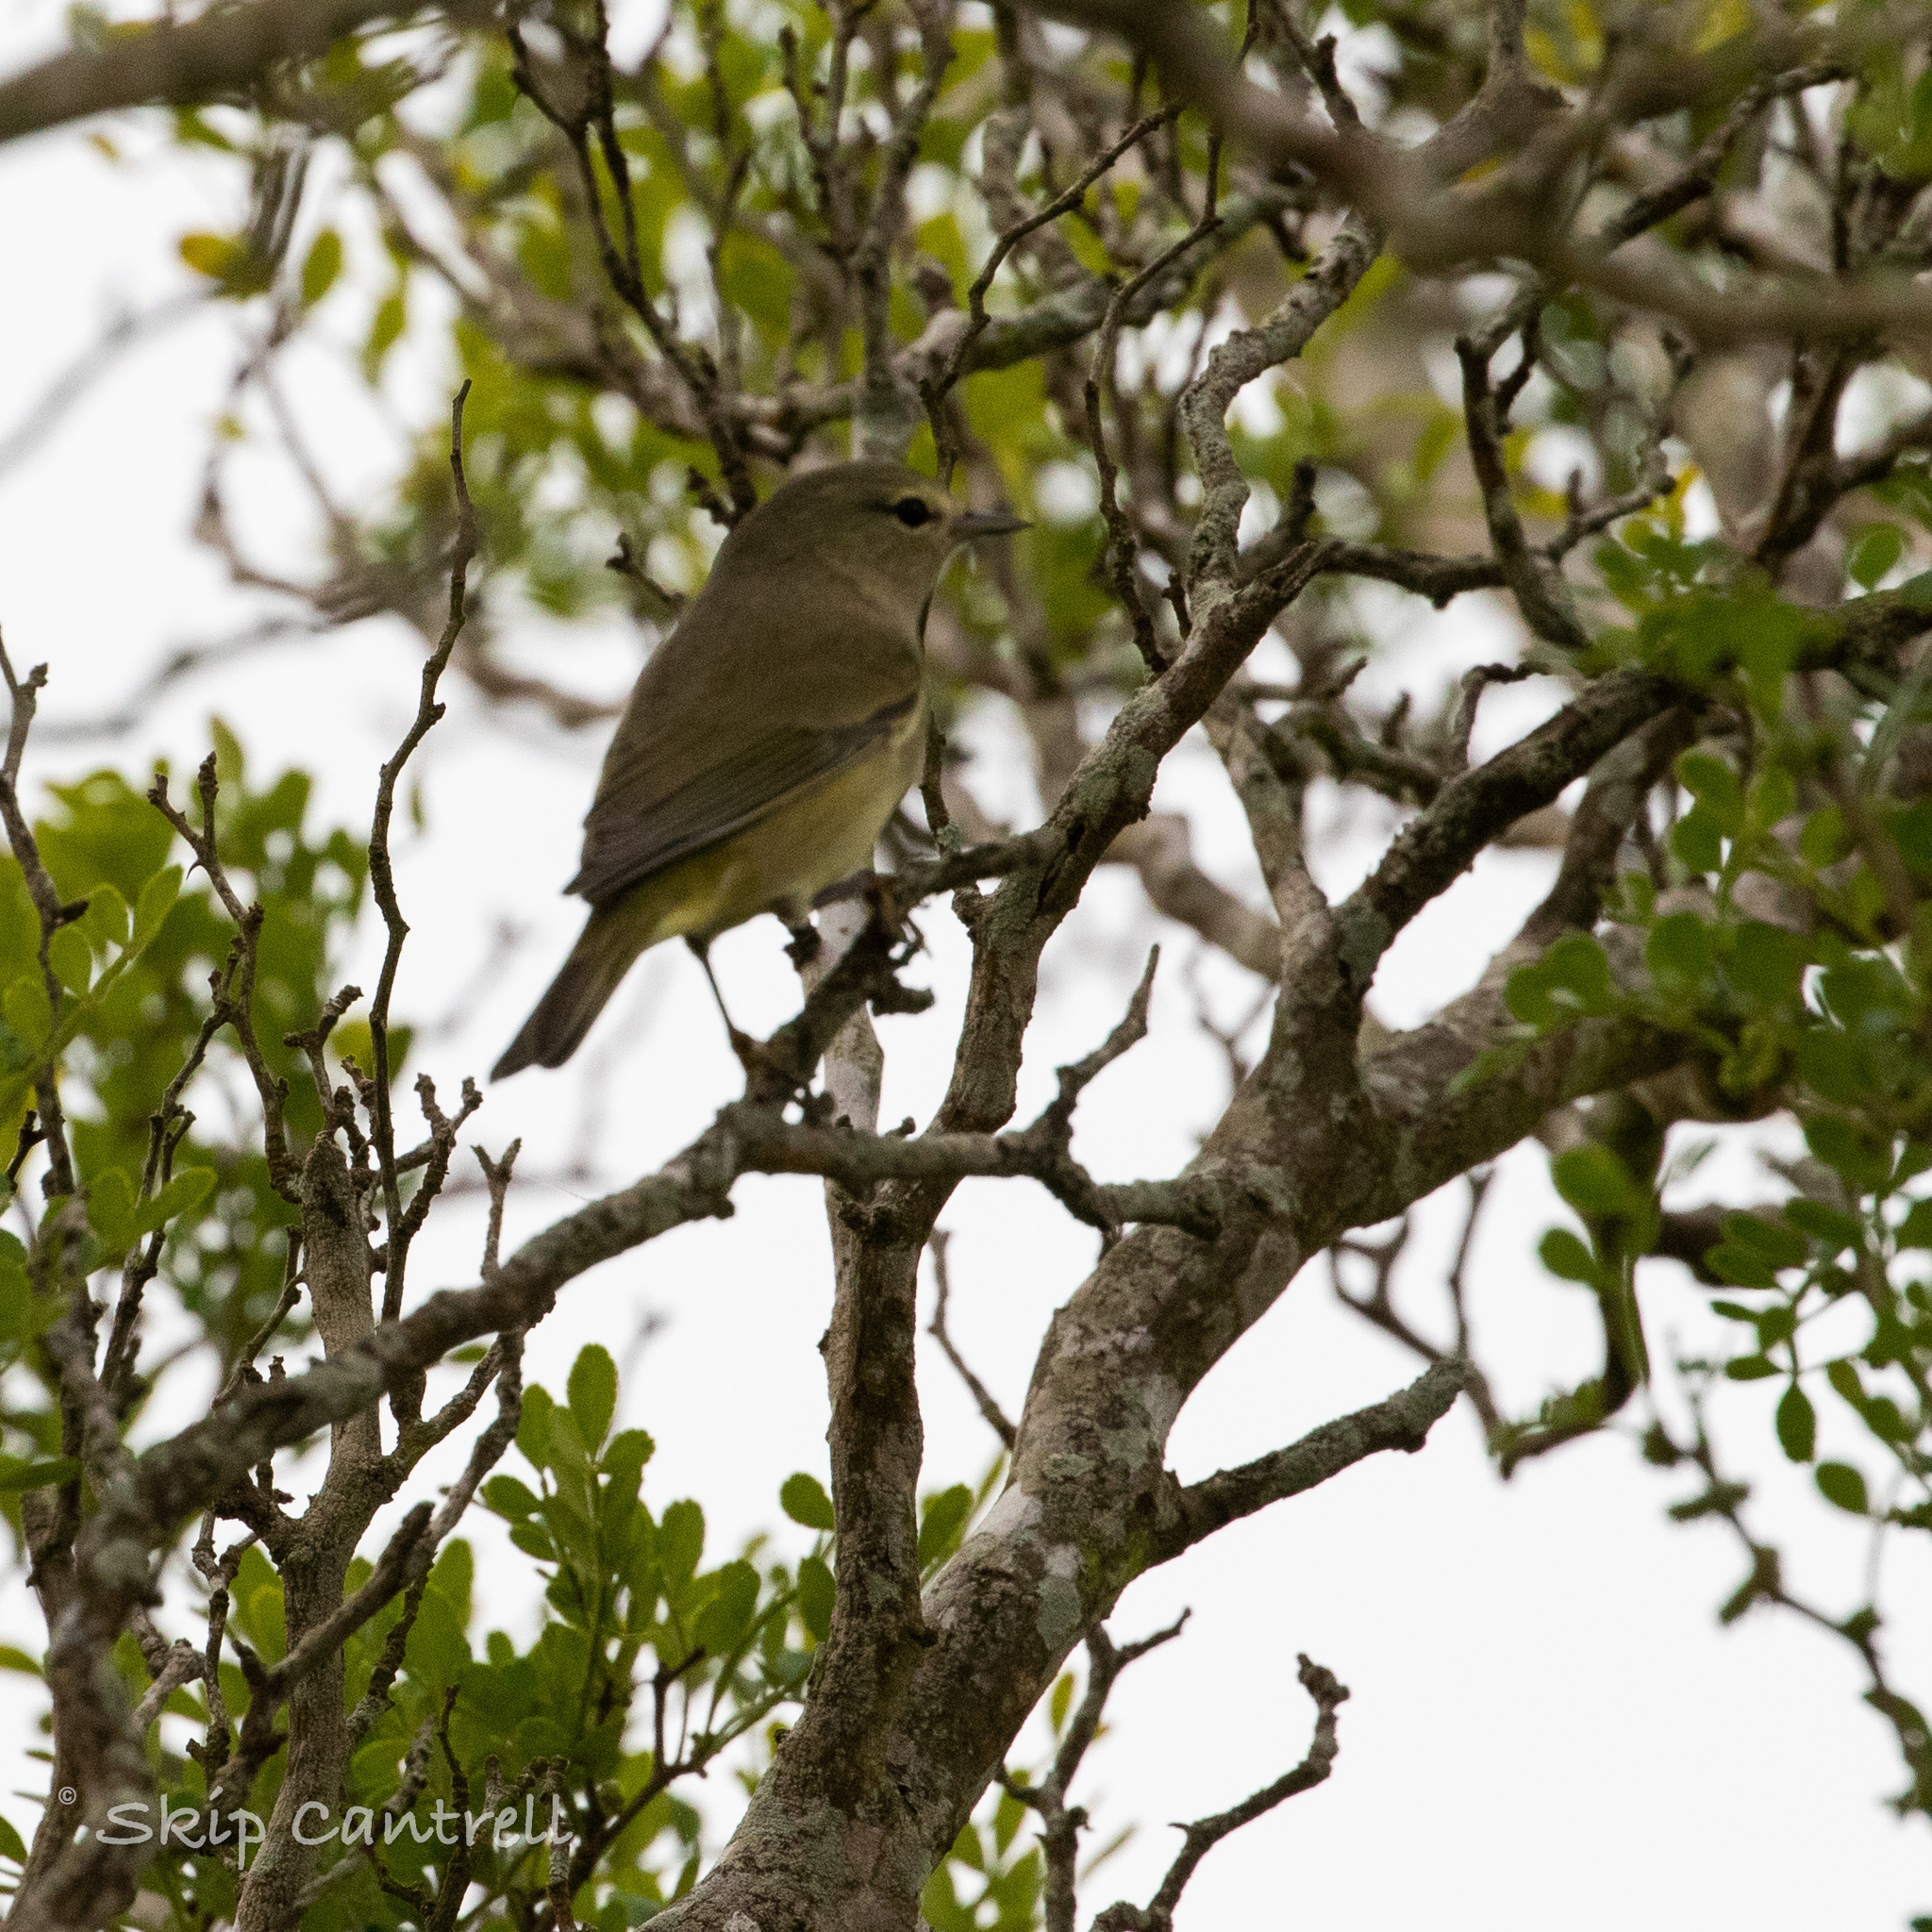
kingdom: Animalia
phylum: Chordata
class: Aves
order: Passeriformes
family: Parulidae
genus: Leiothlypis
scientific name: Leiothlypis celata
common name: Orange-crowned warbler
